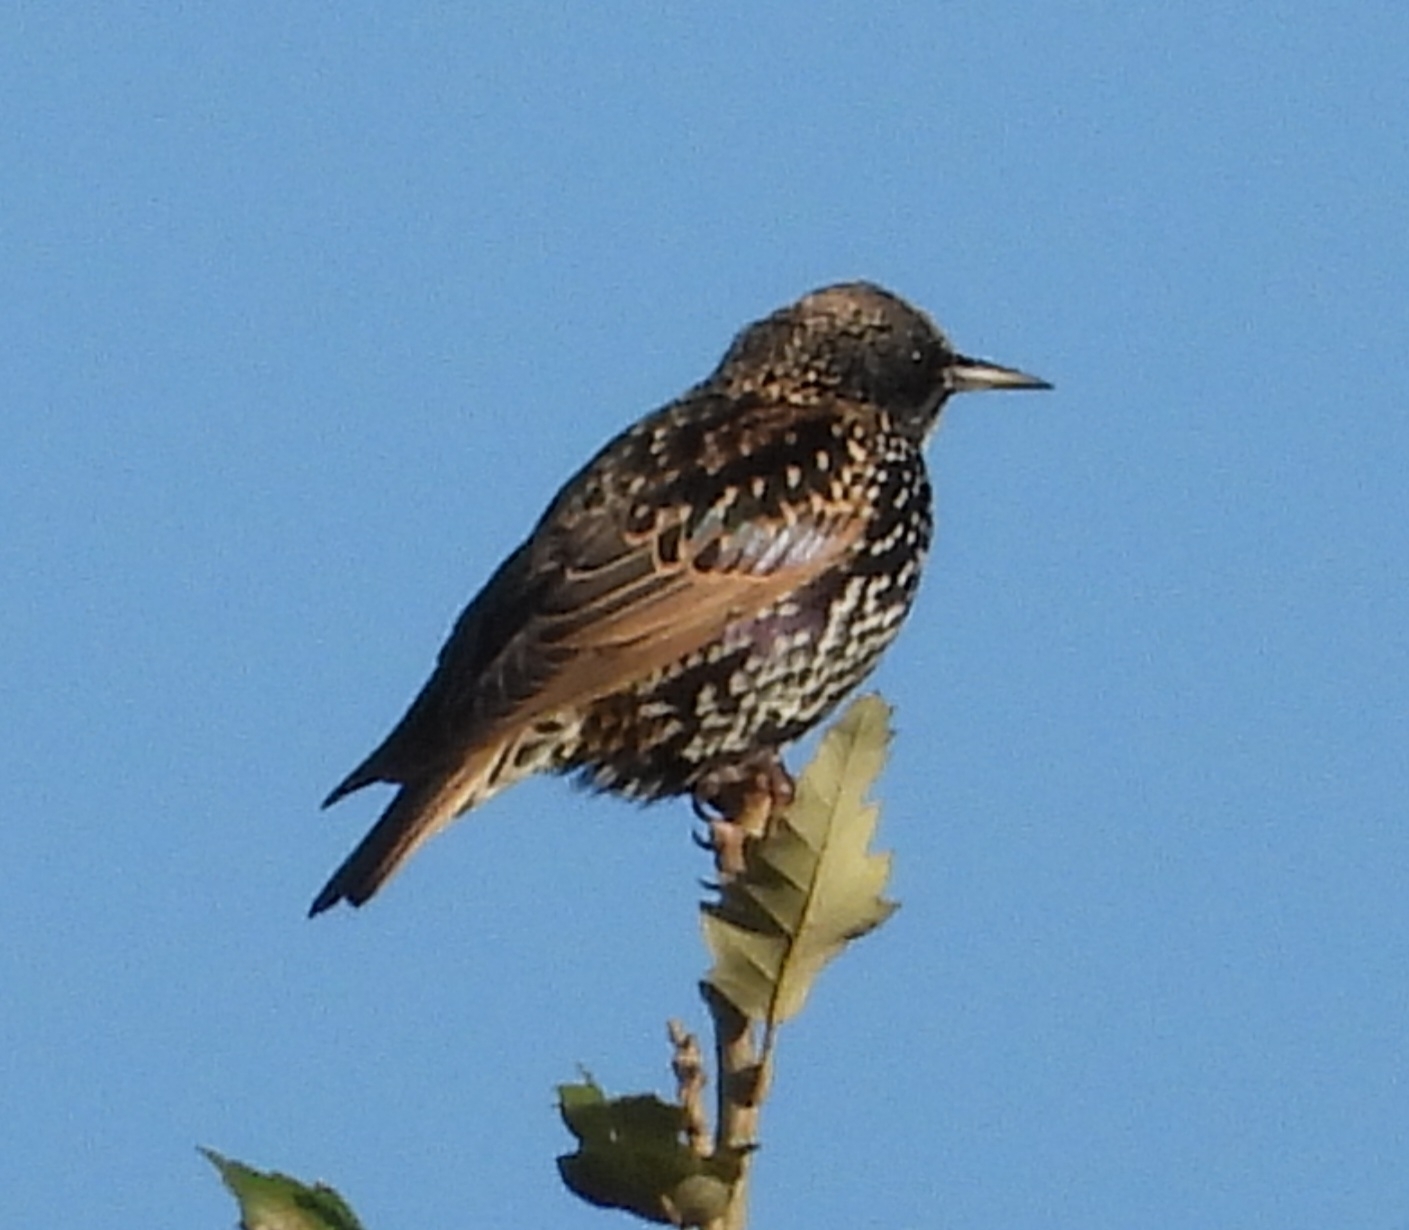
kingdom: Animalia
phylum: Chordata
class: Aves
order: Passeriformes
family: Sturnidae
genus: Sturnus
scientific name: Sturnus vulgaris
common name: Common starling
